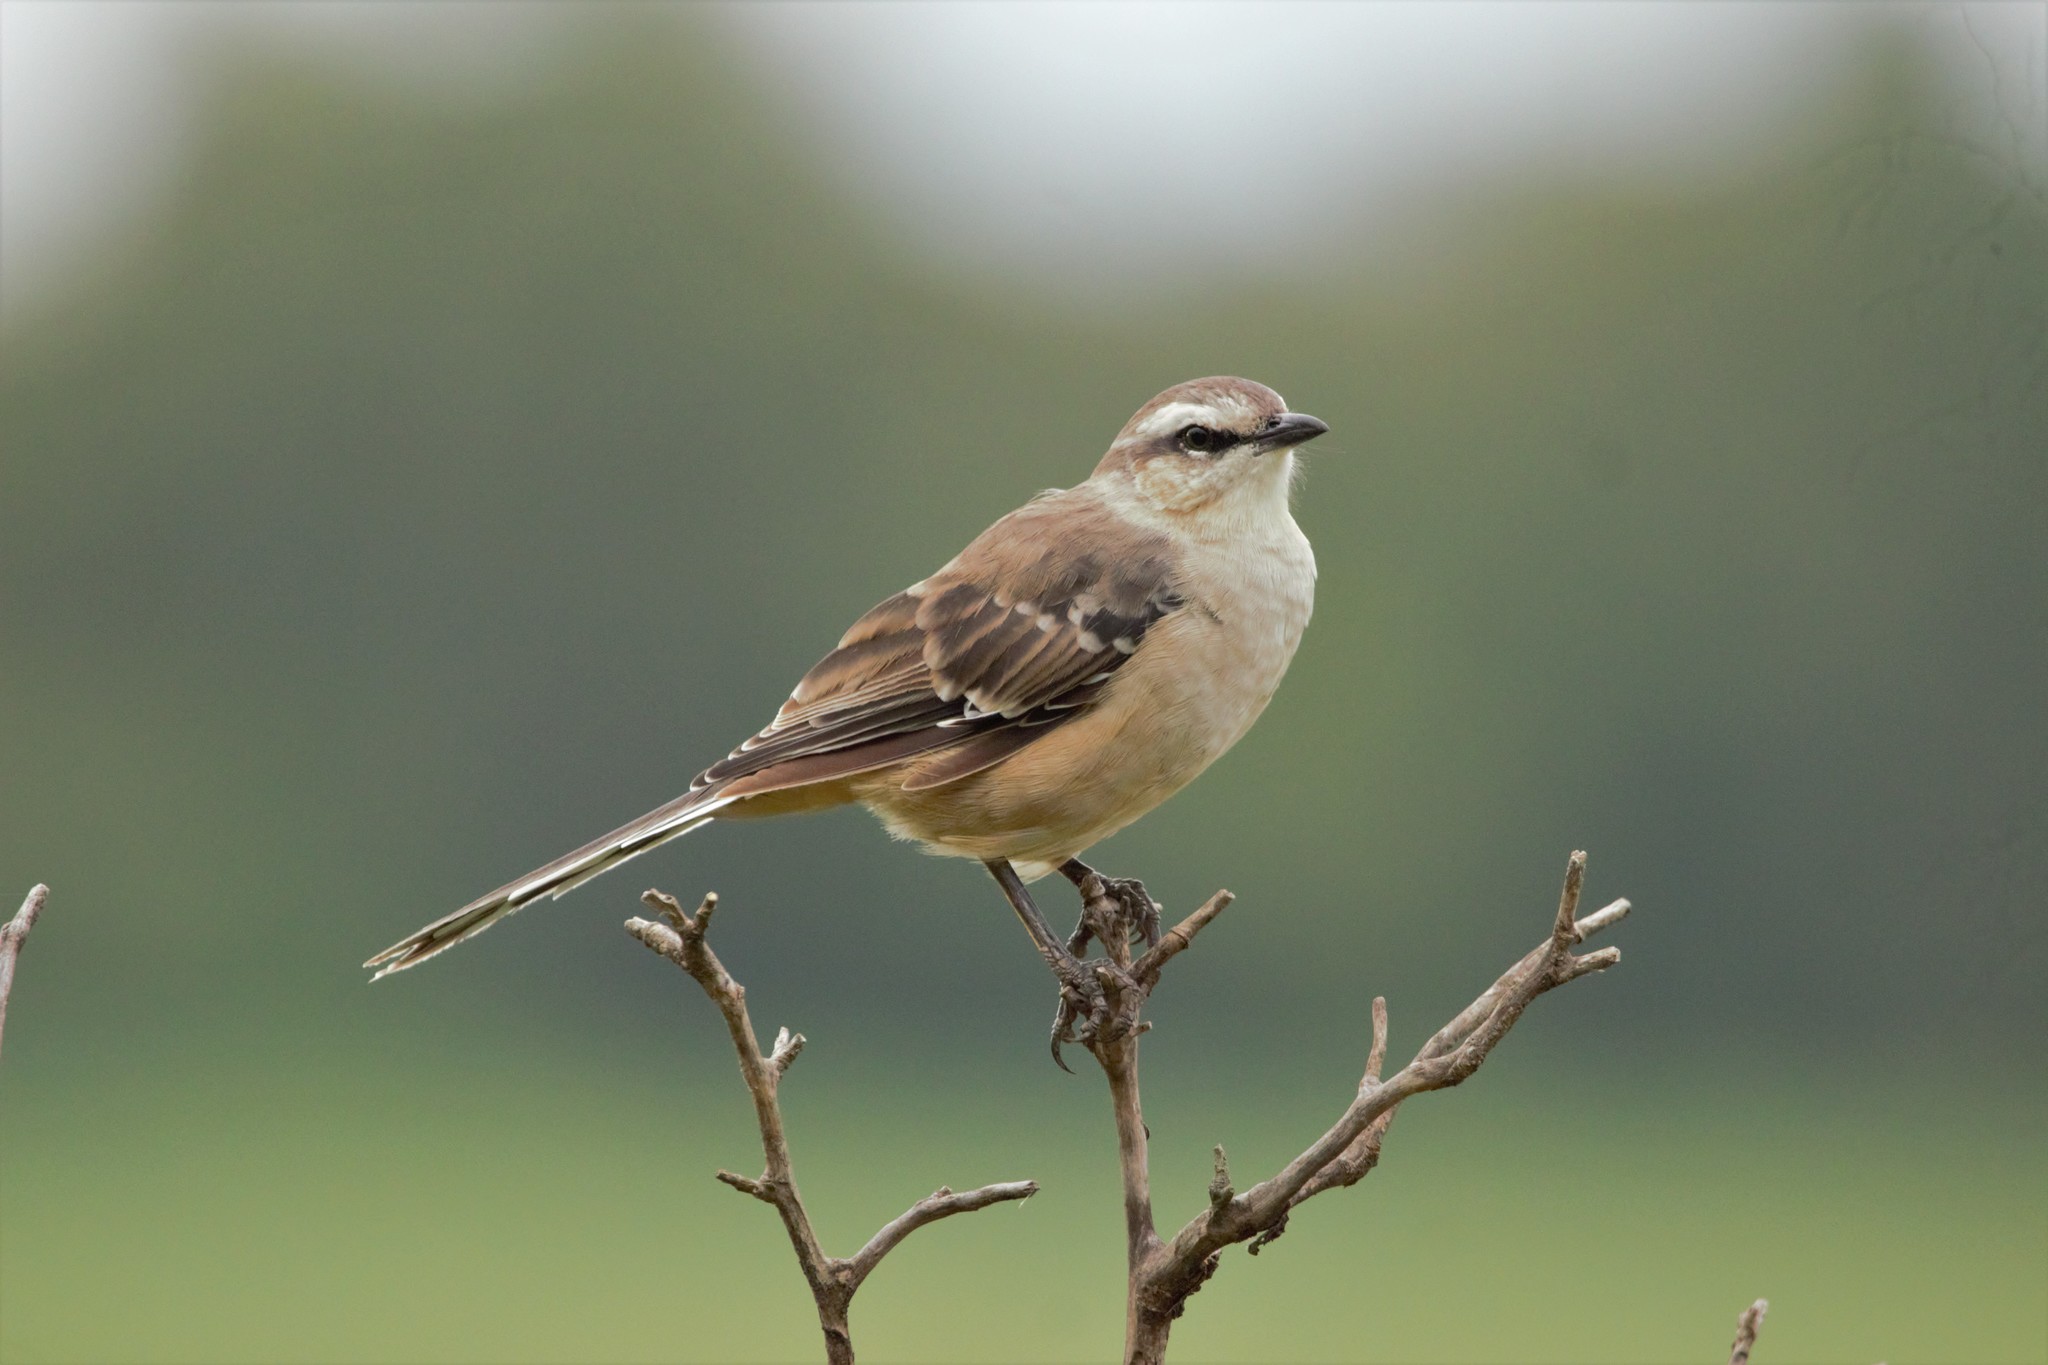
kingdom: Animalia
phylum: Chordata
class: Aves
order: Passeriformes
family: Mimidae
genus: Mimus
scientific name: Mimus saturninus
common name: Chalk-browed mockingbird
